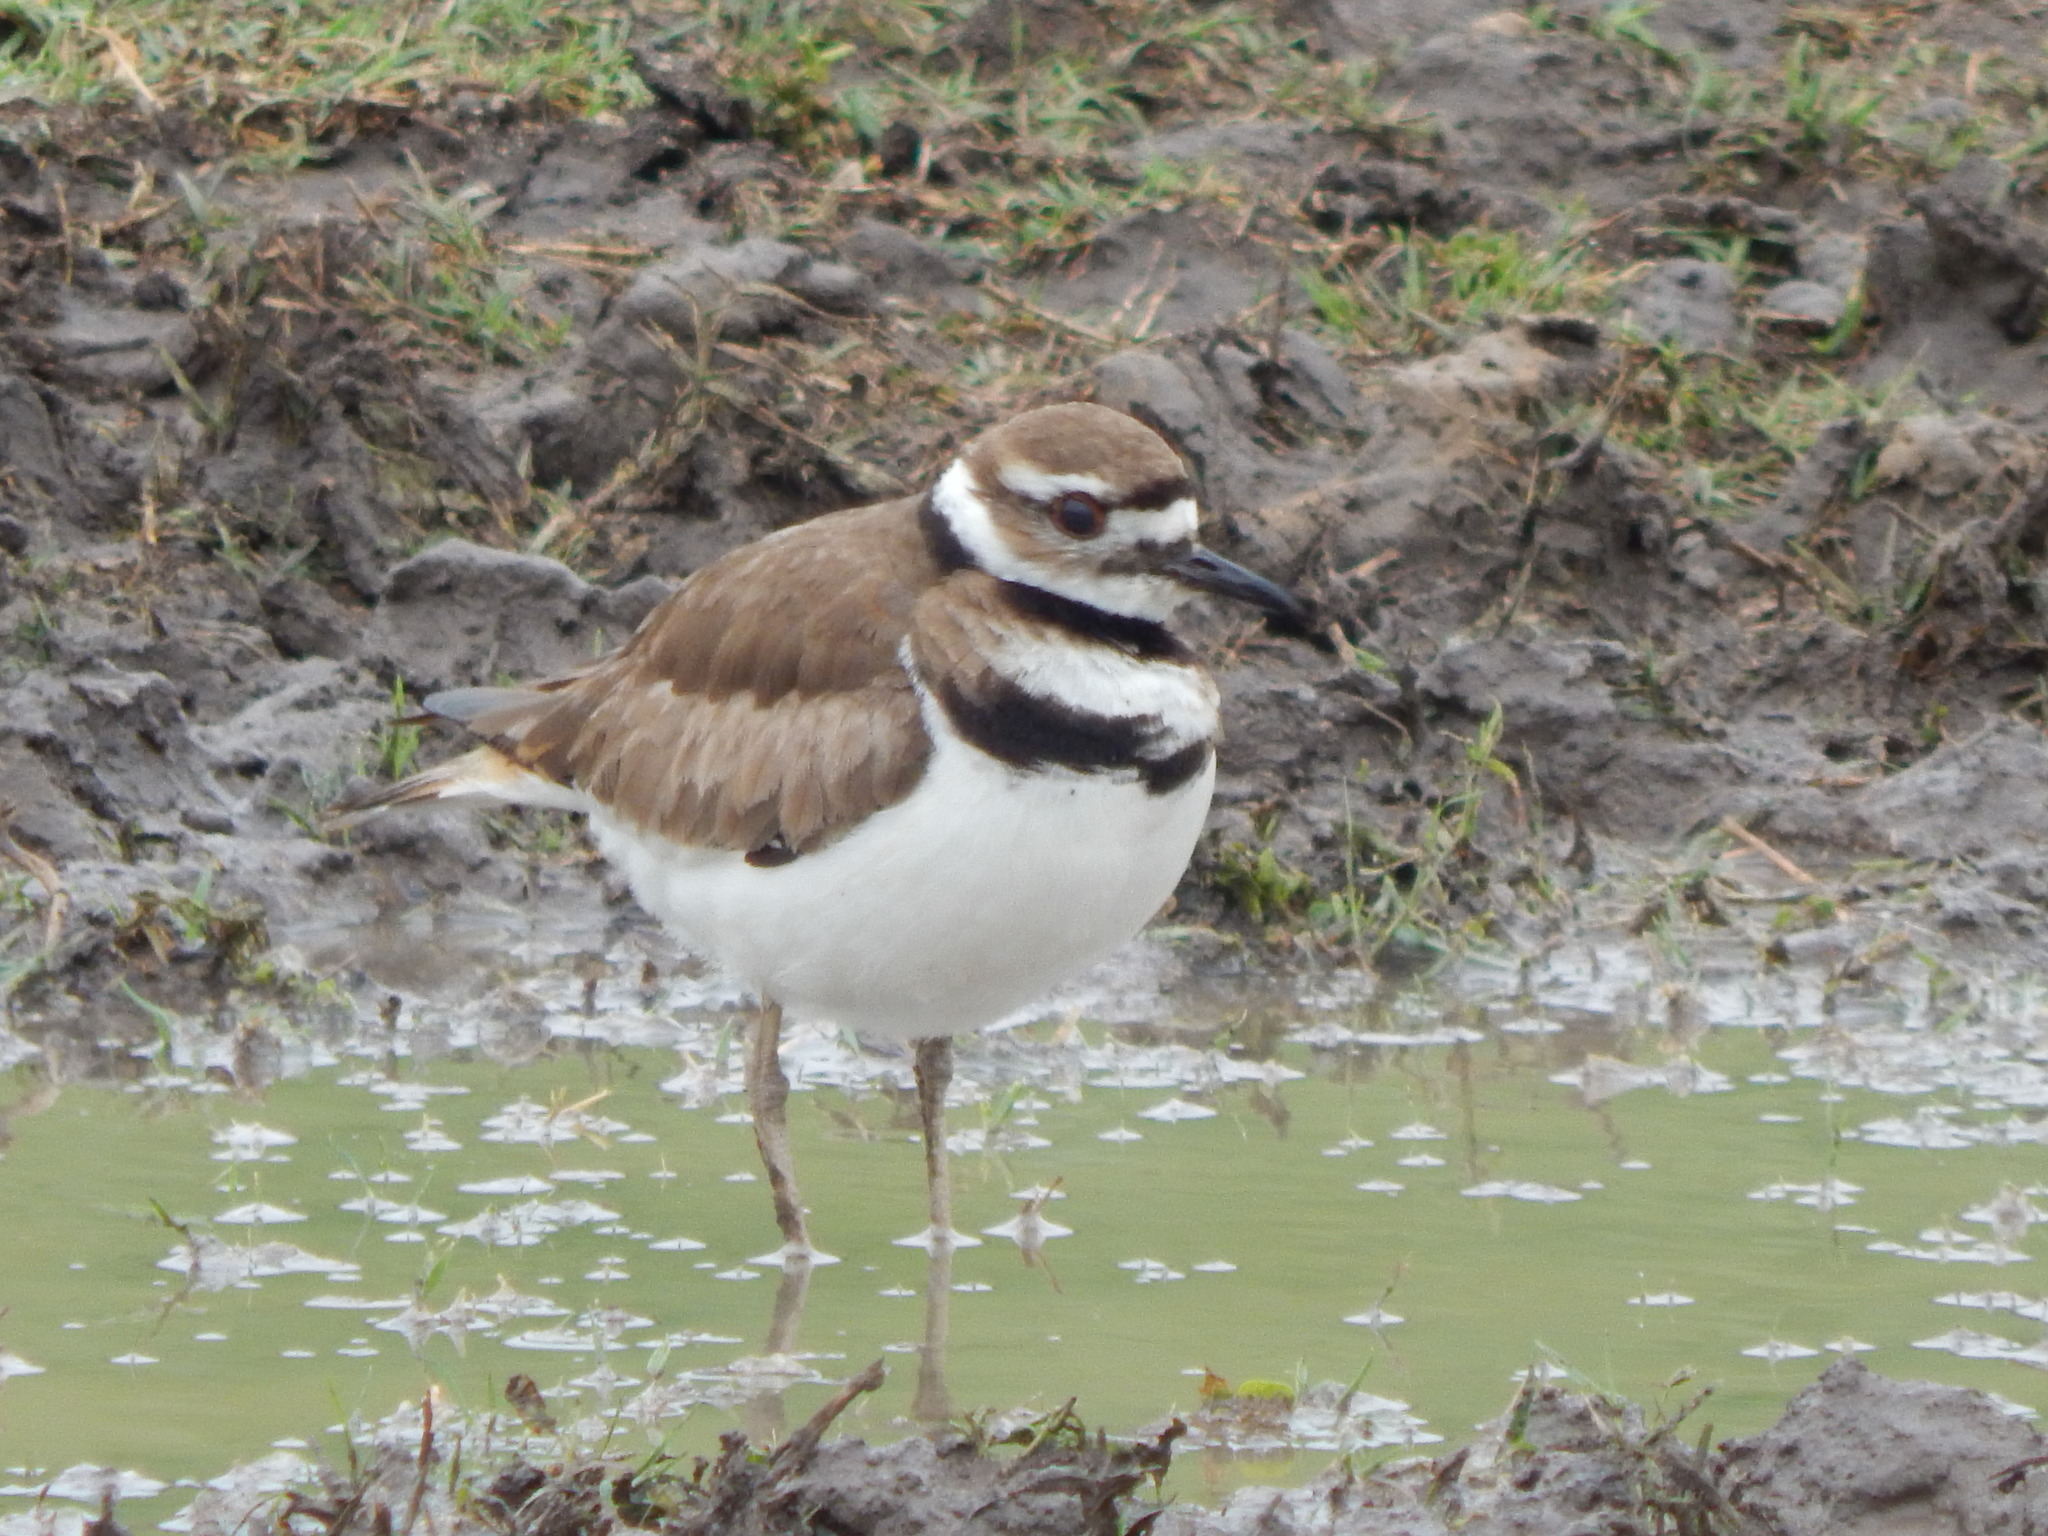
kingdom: Animalia
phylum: Chordata
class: Aves
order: Charadriiformes
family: Charadriidae
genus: Charadrius
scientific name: Charadrius vociferus
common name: Killdeer
